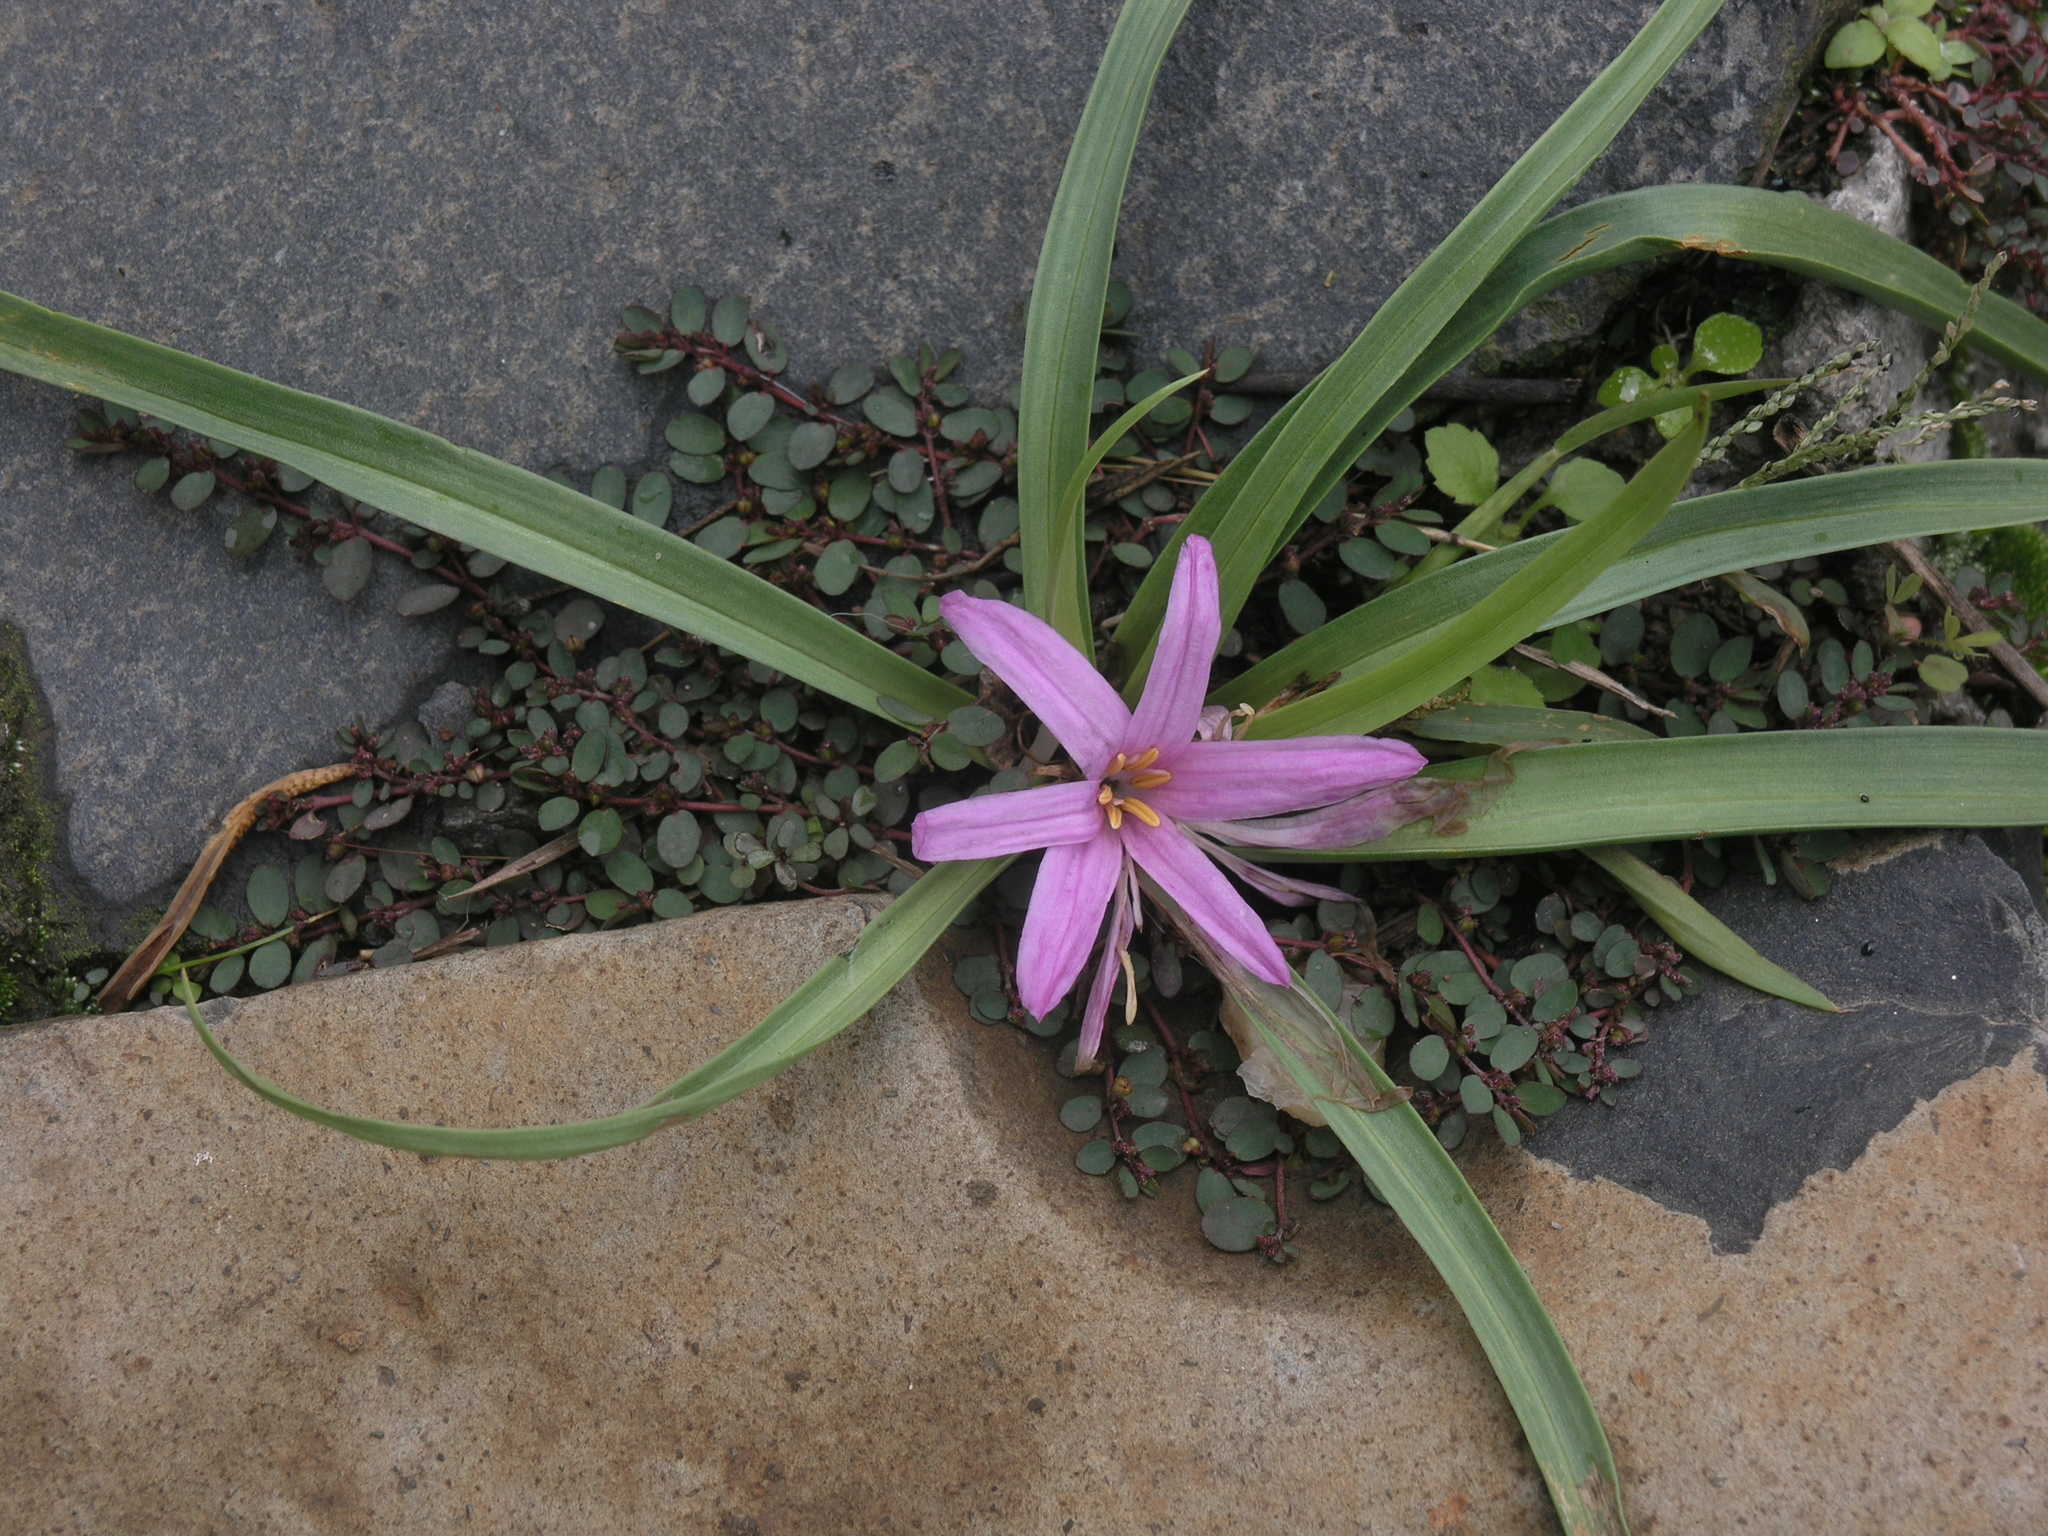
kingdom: Plantae
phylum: Tracheophyta
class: Liliopsida
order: Liliales
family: Colchicaceae
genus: Colchicum
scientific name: Colchicum schimperianum
